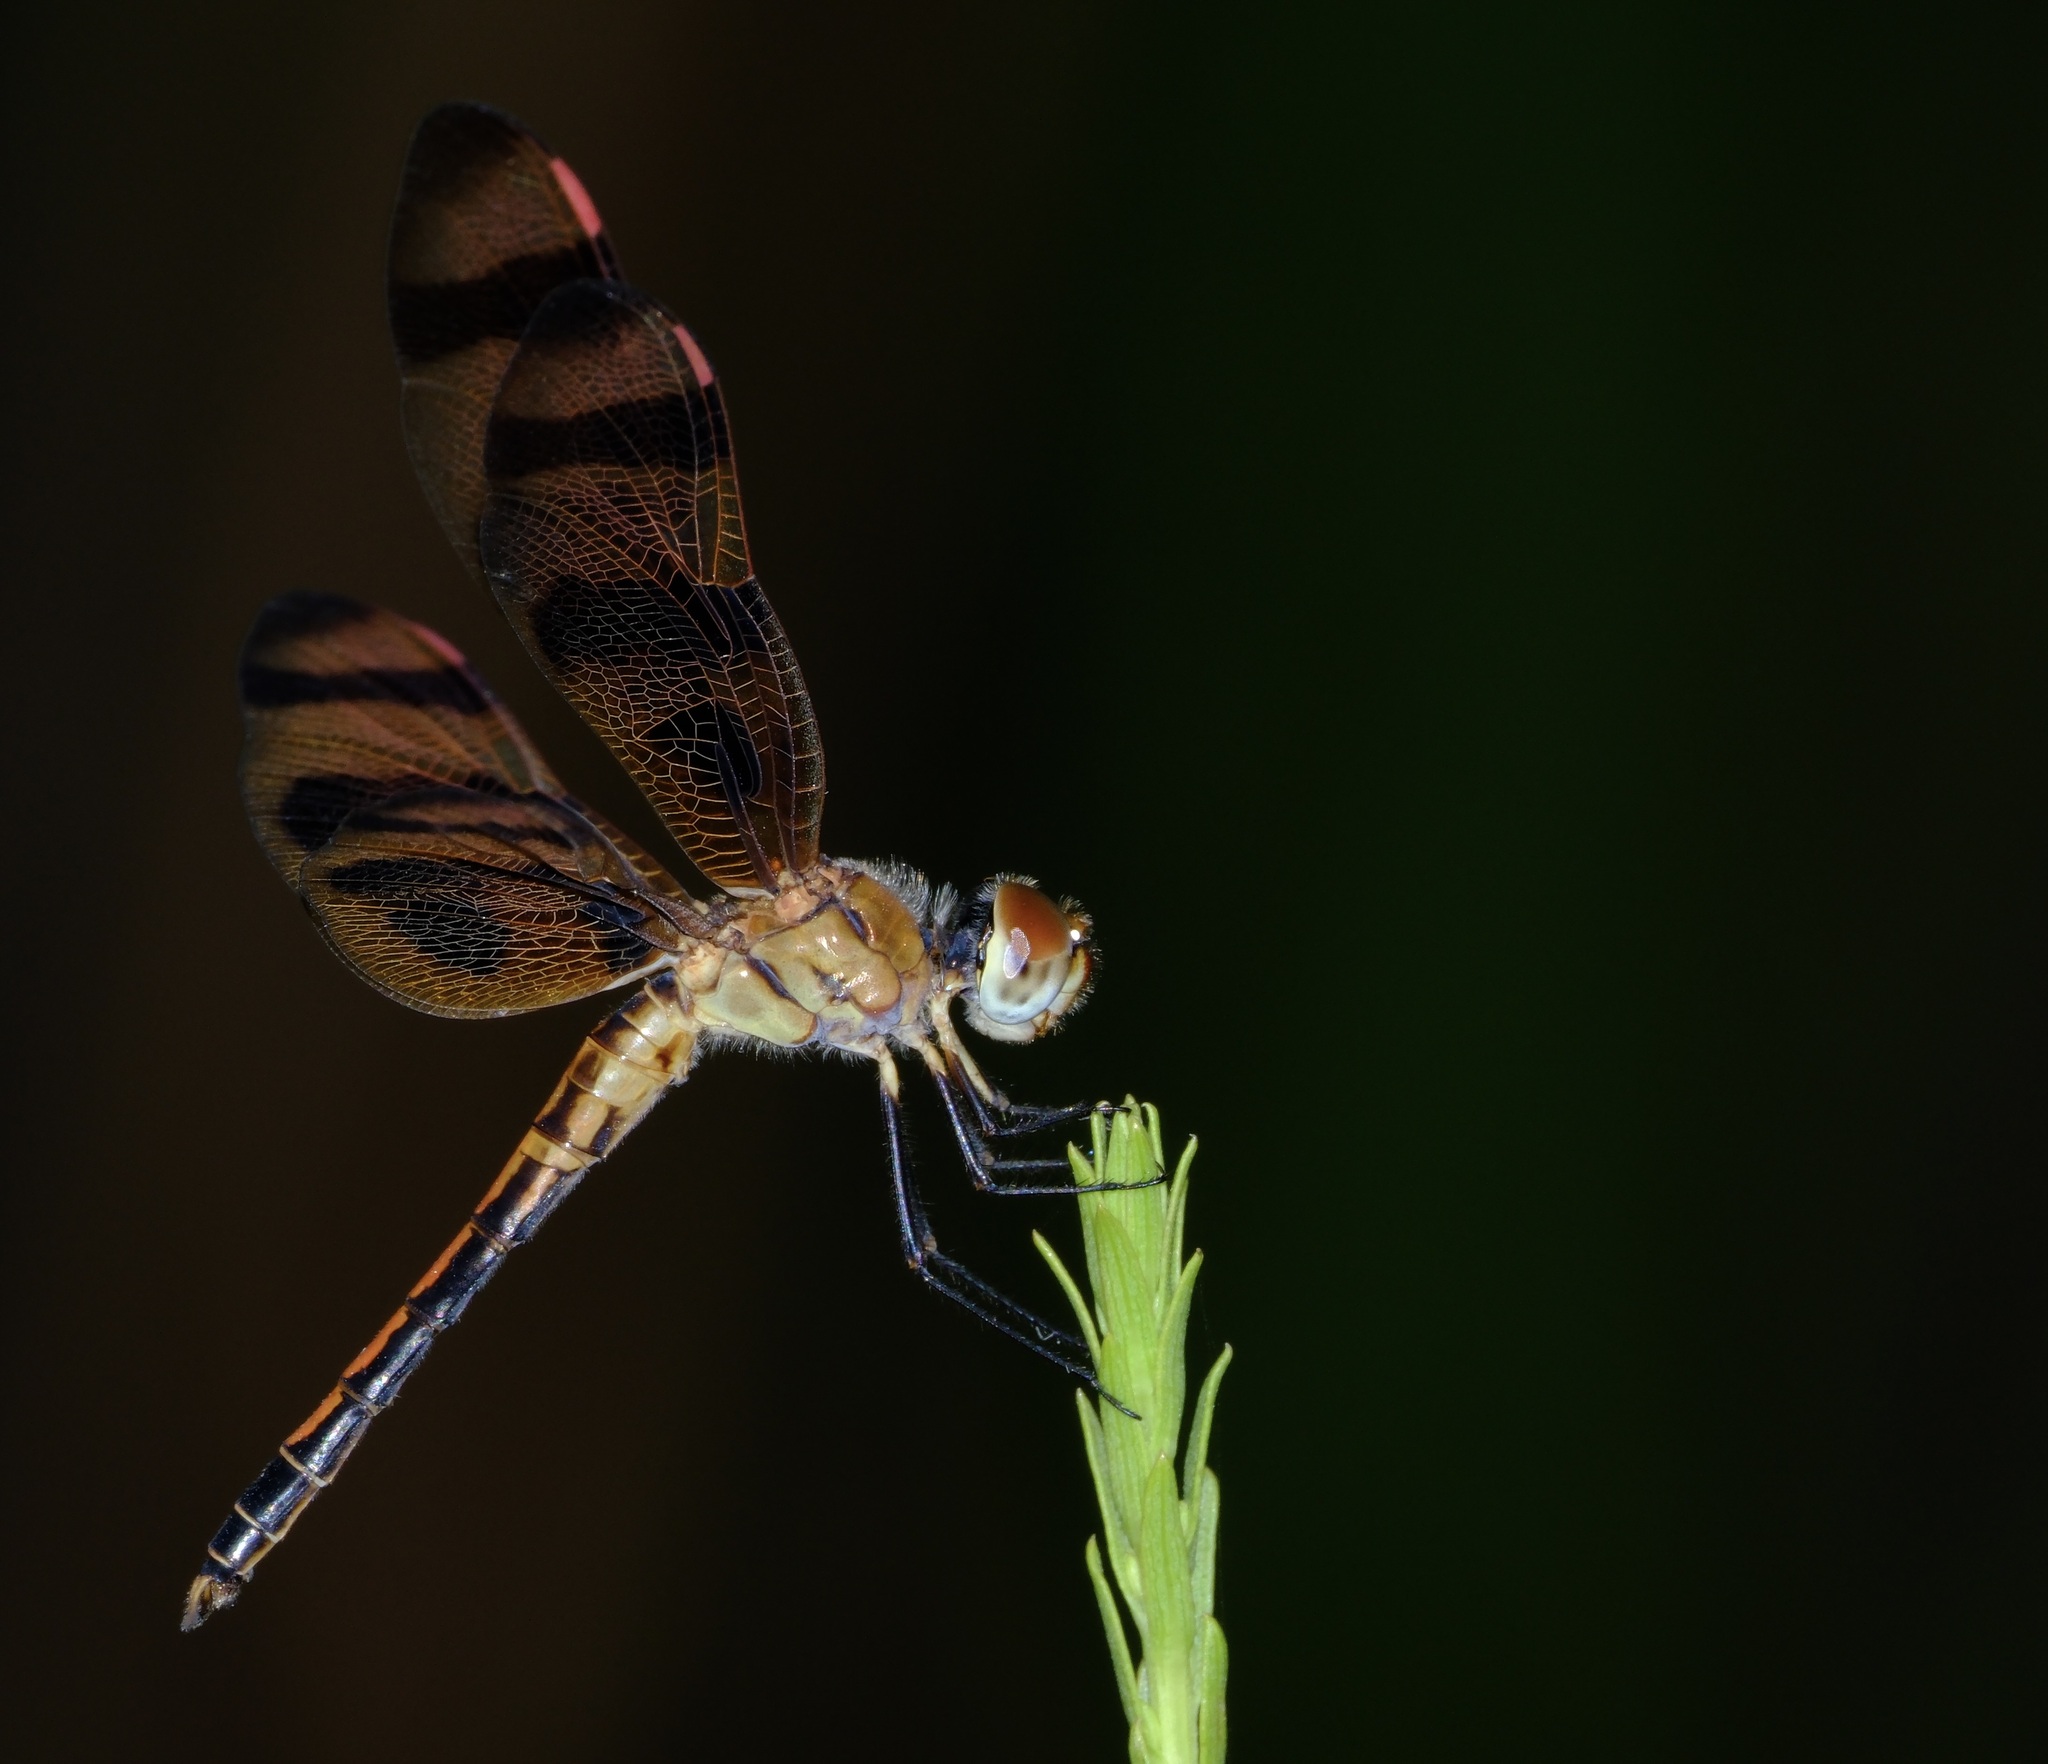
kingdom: Animalia
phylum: Arthropoda
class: Insecta
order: Odonata
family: Libellulidae
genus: Celithemis
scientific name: Celithemis eponina
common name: Halloween pennant
